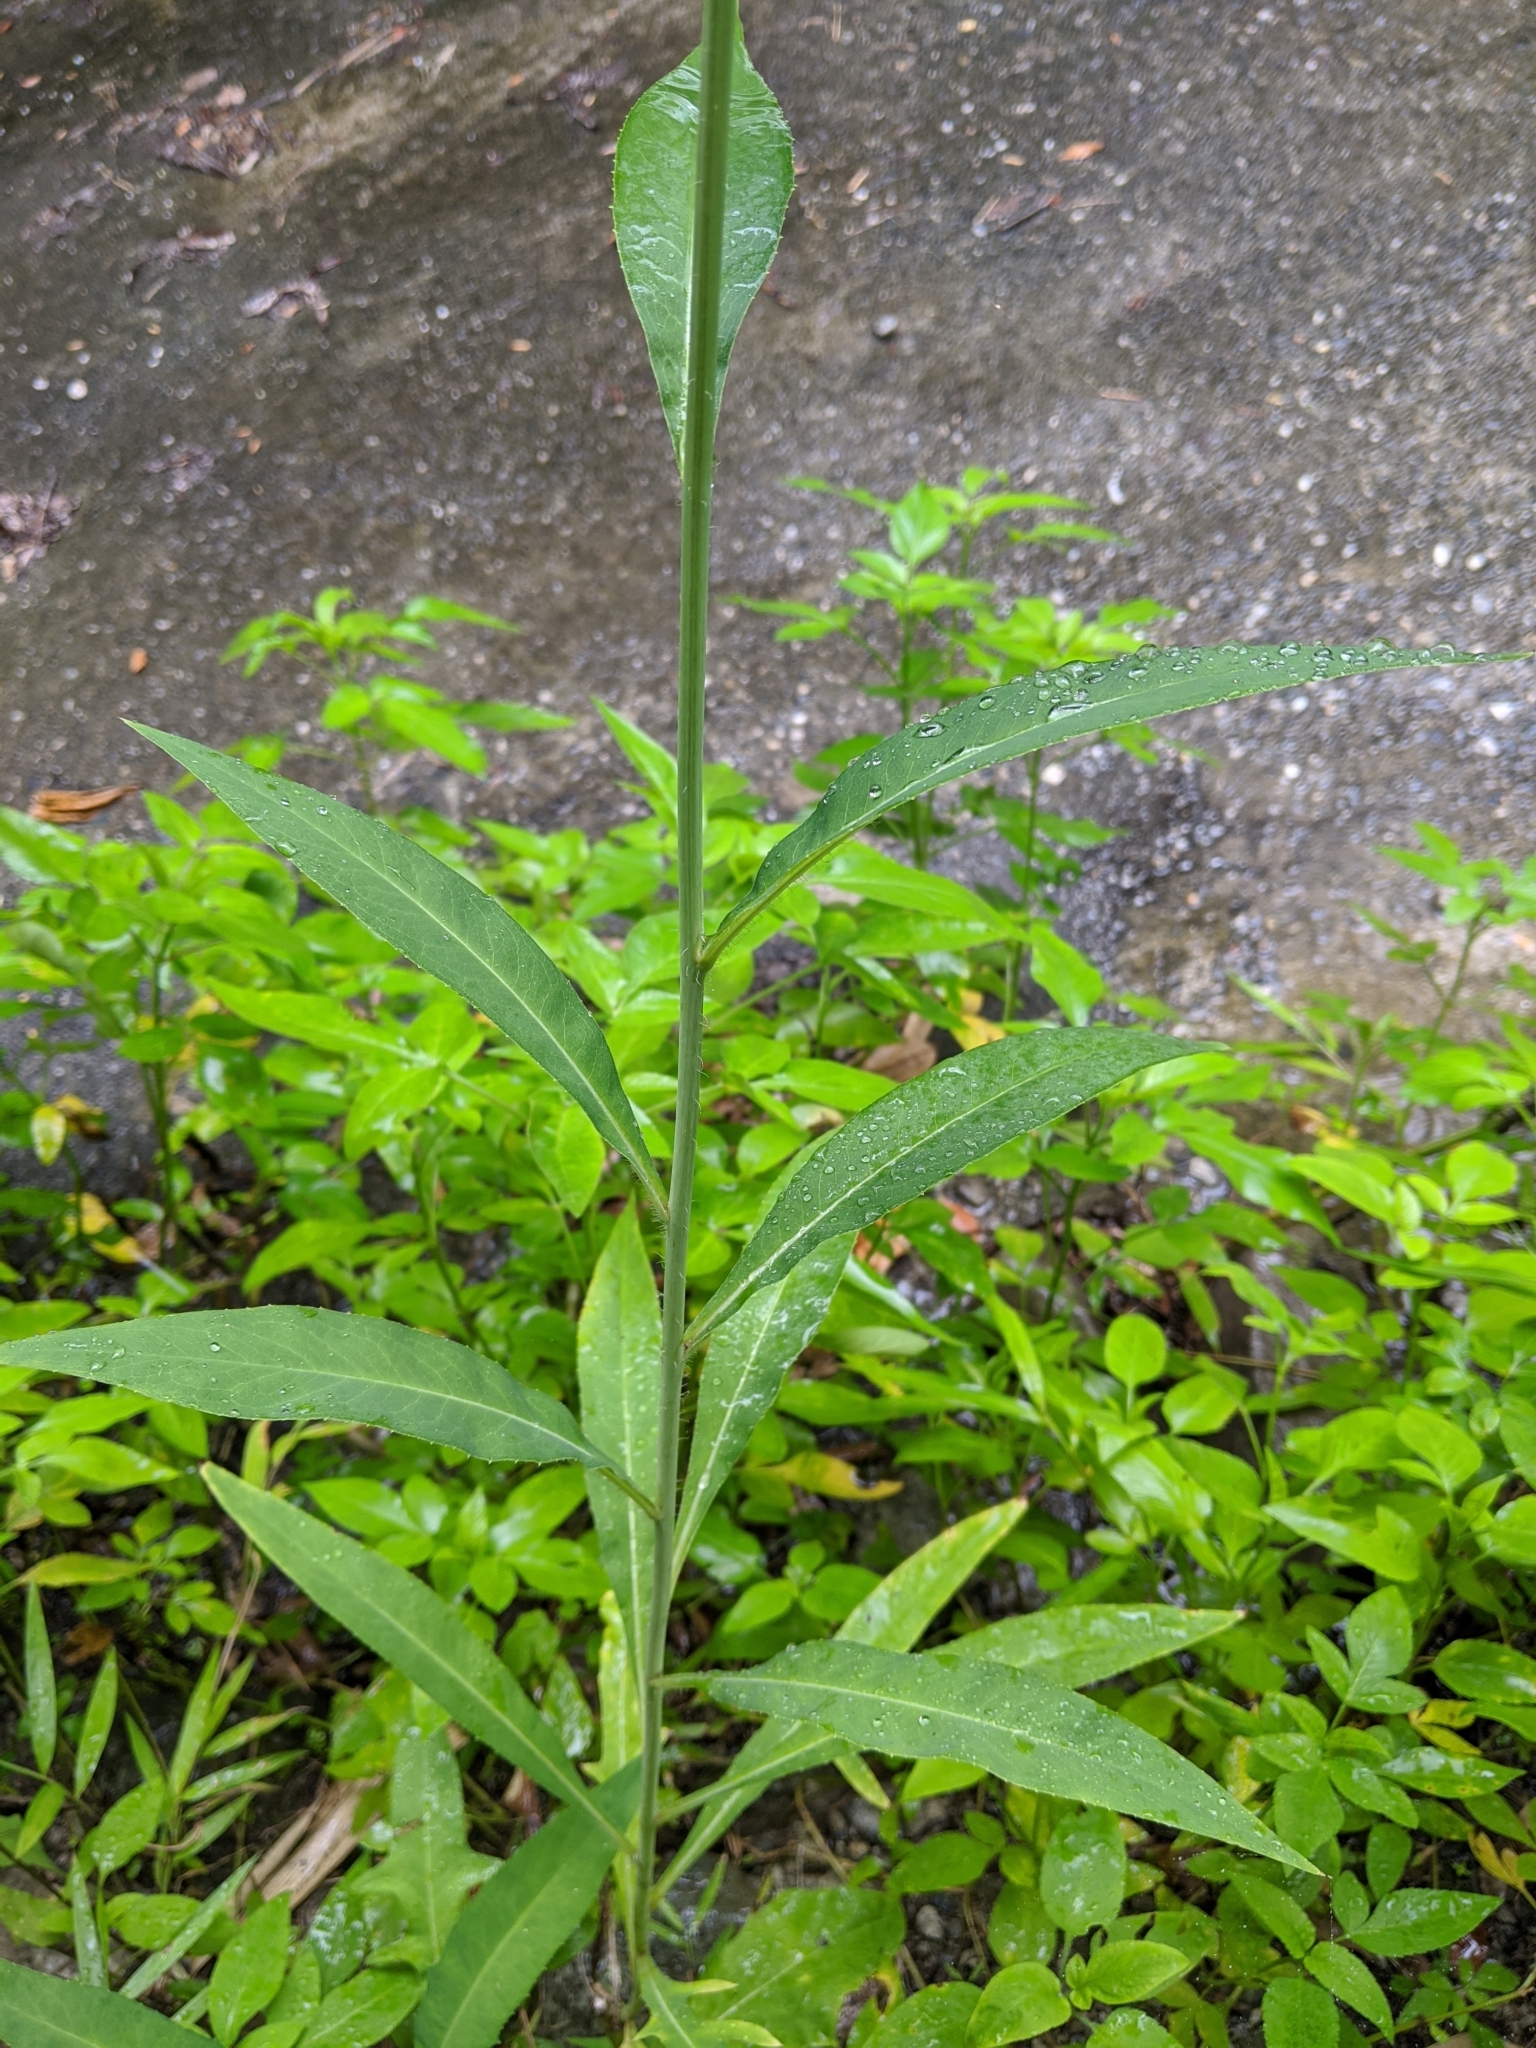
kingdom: Plantae
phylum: Tracheophyta
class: Magnoliopsida
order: Asterales
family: Asteraceae
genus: Lactuca
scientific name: Lactuca indica
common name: Wild lettuce
